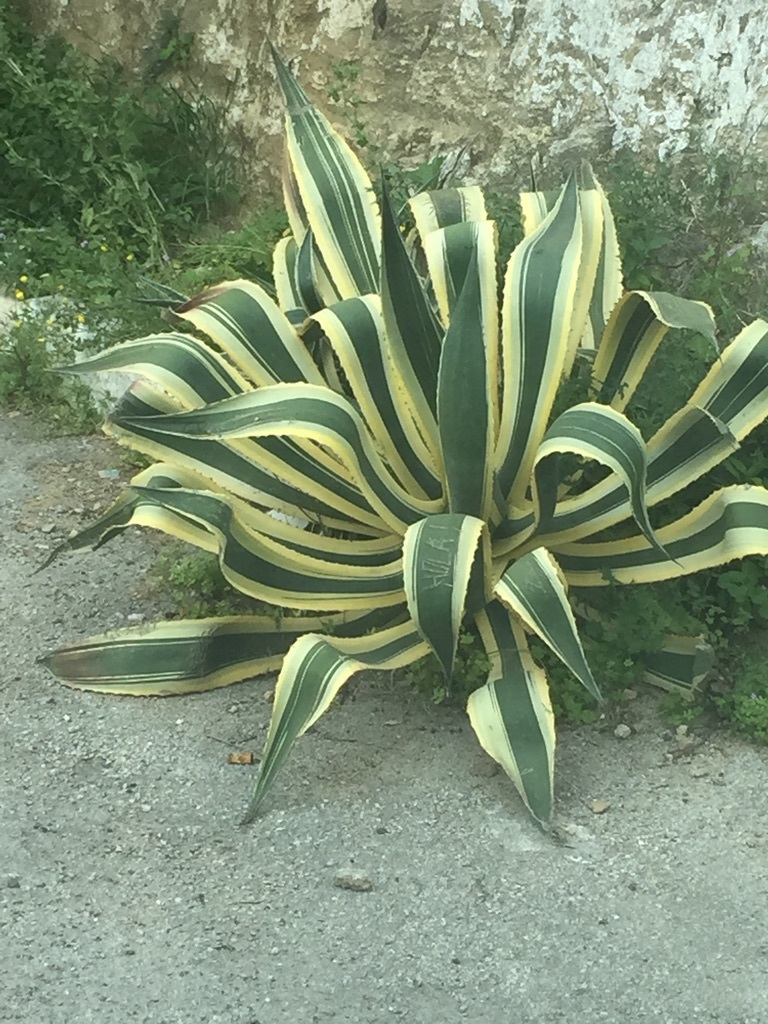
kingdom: Plantae
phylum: Tracheophyta
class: Liliopsida
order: Asparagales
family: Asparagaceae
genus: Agave
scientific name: Agave americana
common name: Centuryplant
